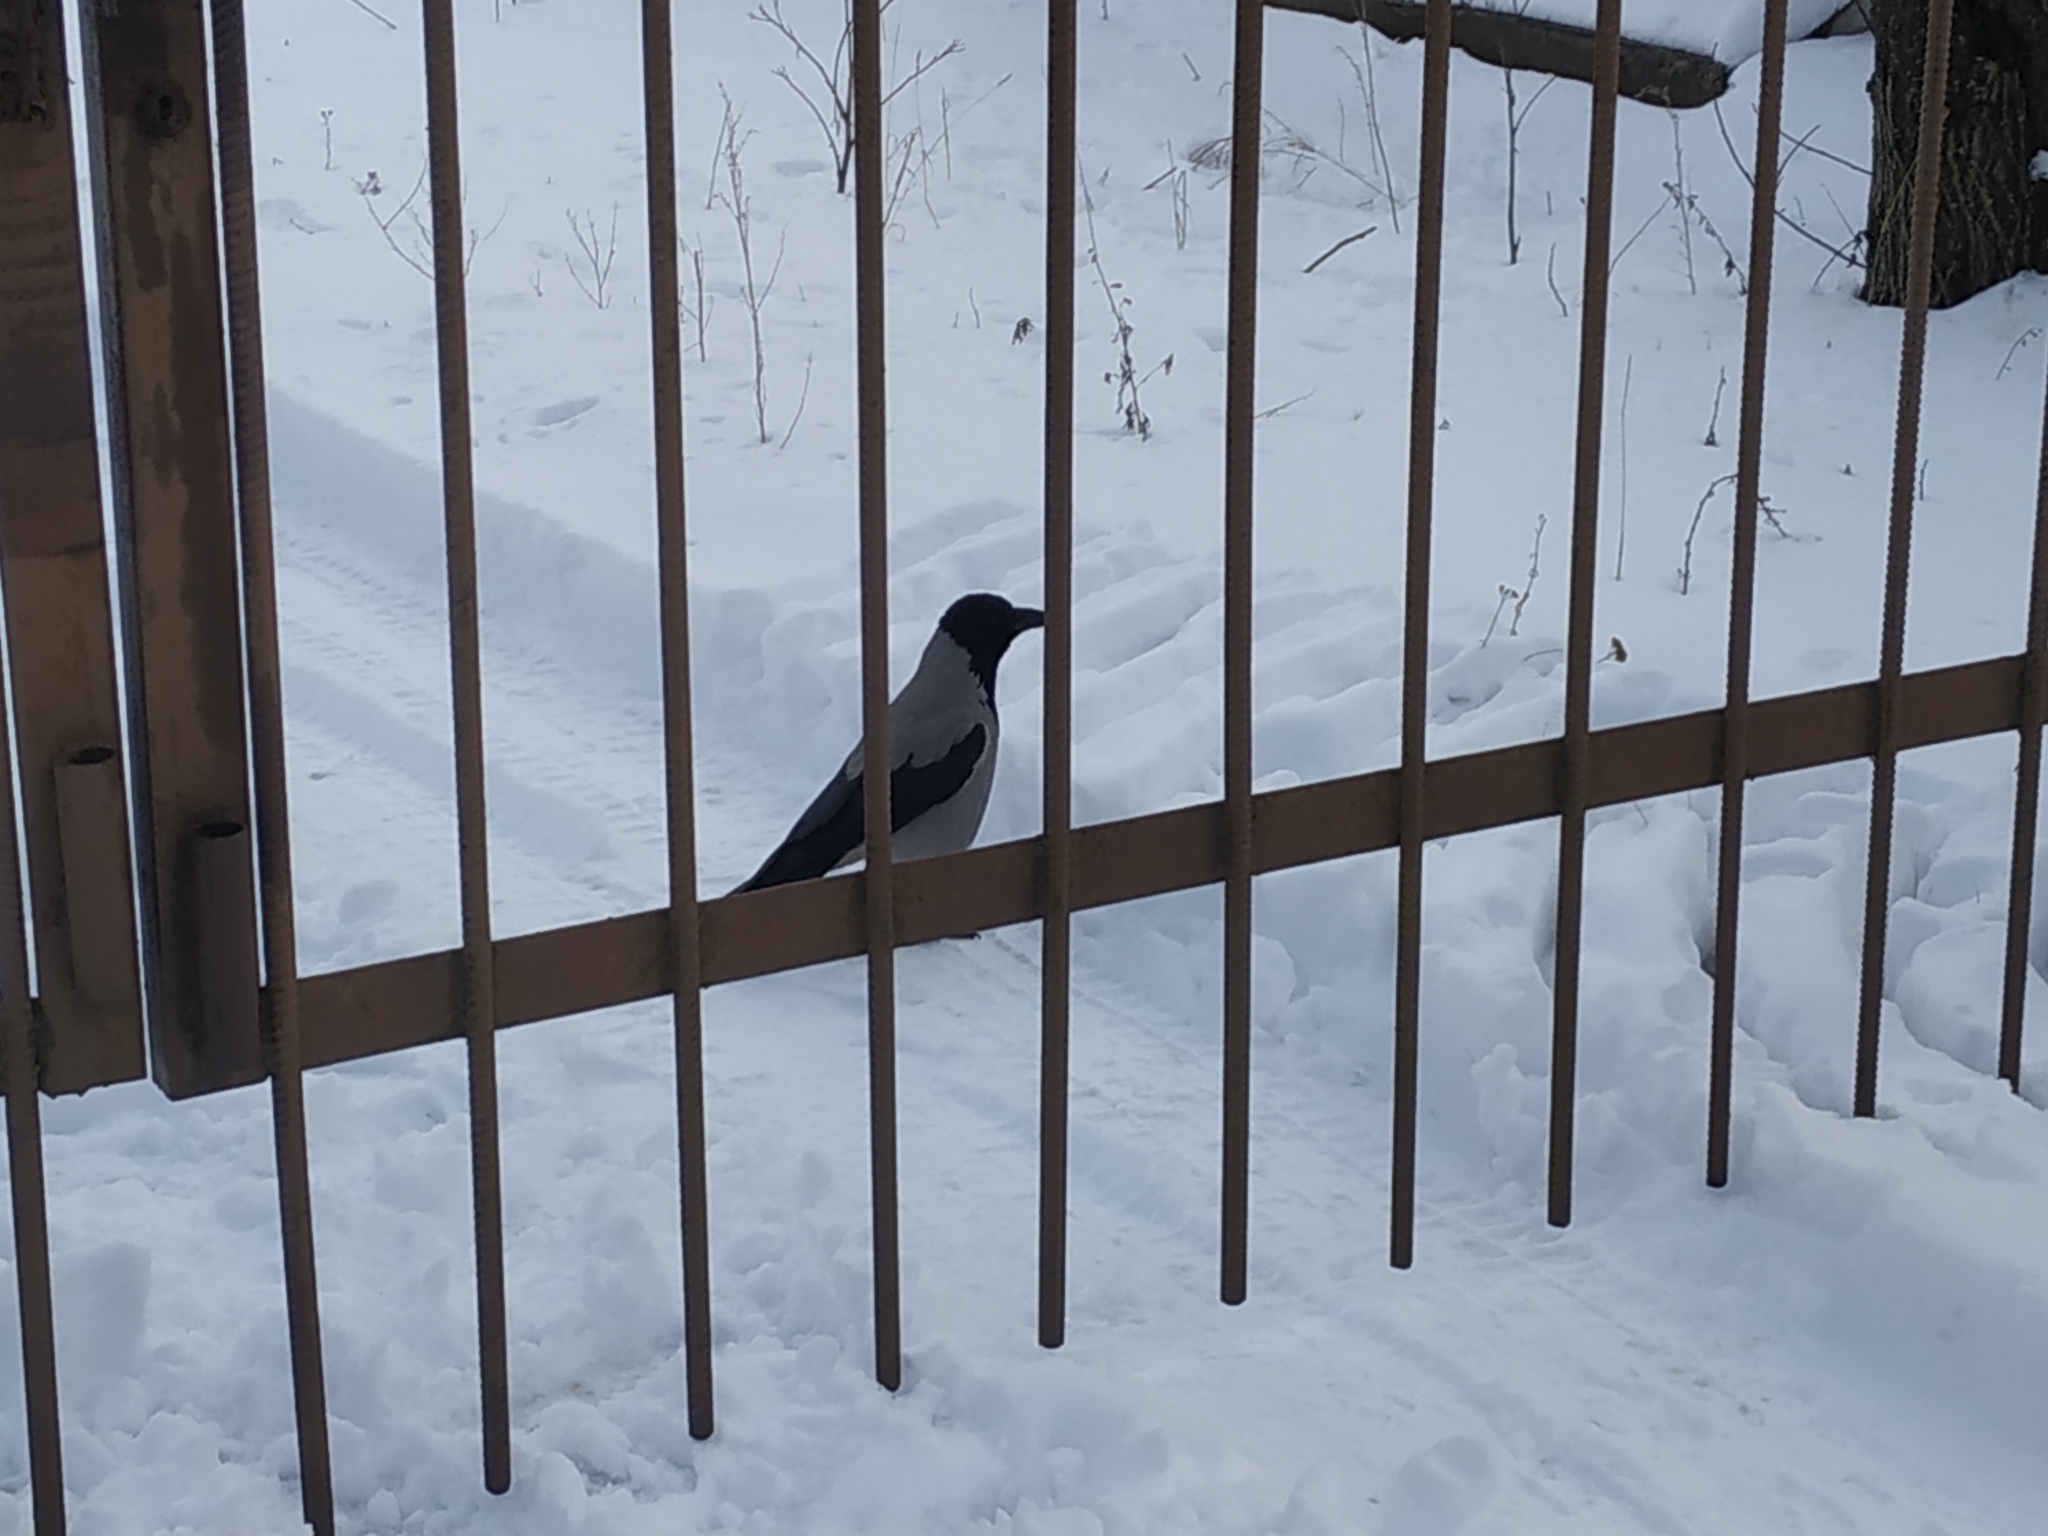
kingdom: Animalia
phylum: Chordata
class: Aves
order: Passeriformes
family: Corvidae
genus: Corvus
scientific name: Corvus cornix
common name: Hooded crow
